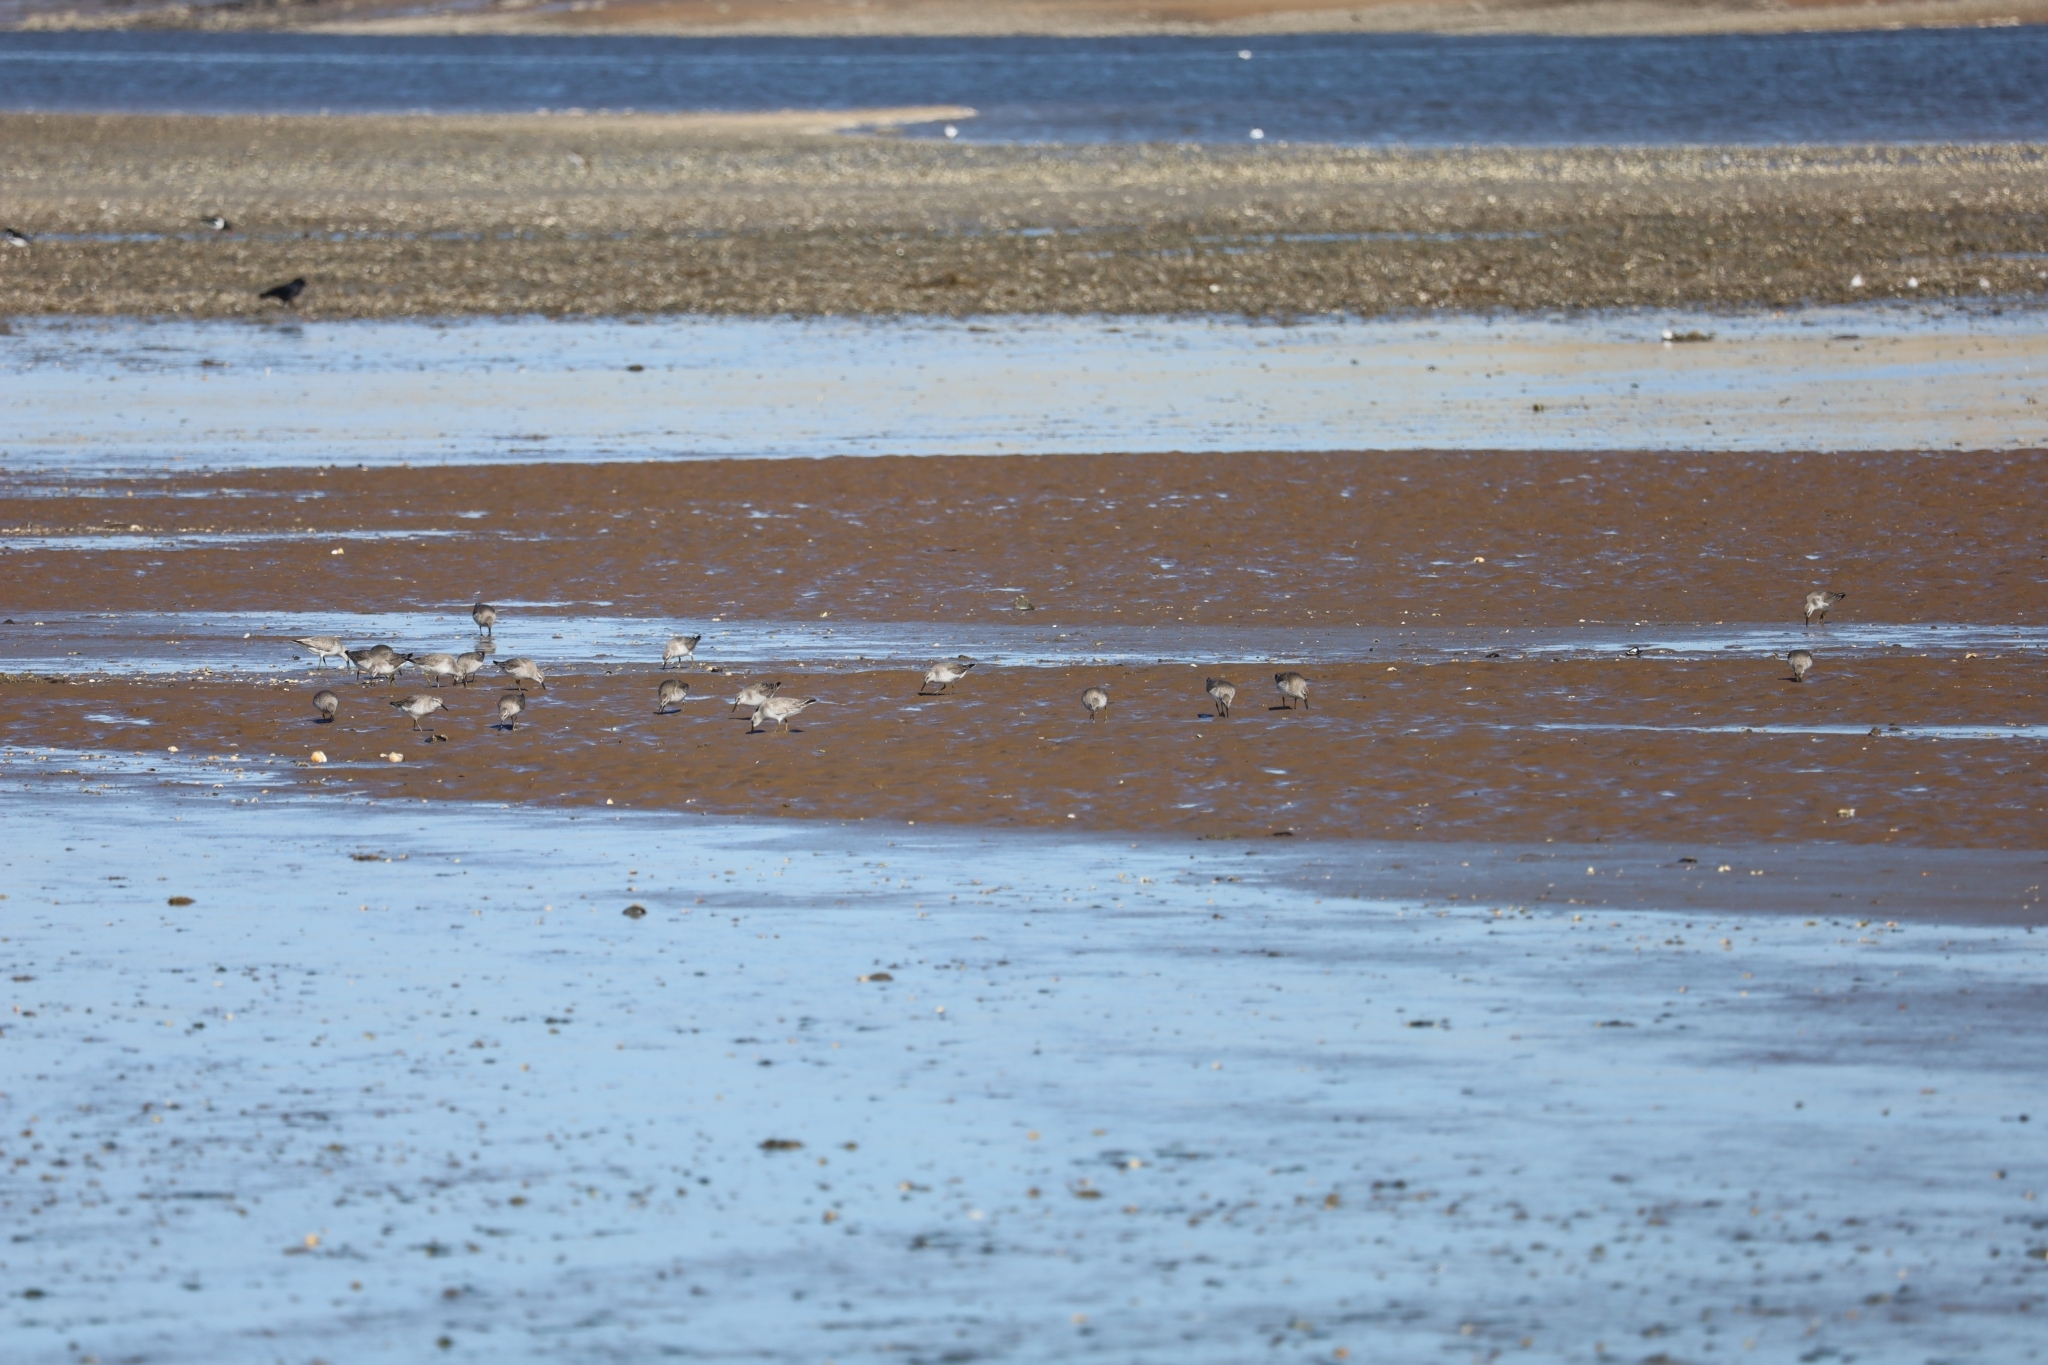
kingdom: Animalia
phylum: Chordata
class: Aves
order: Charadriiformes
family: Scolopacidae
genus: Calidris
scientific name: Calidris canutus
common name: Red knot
